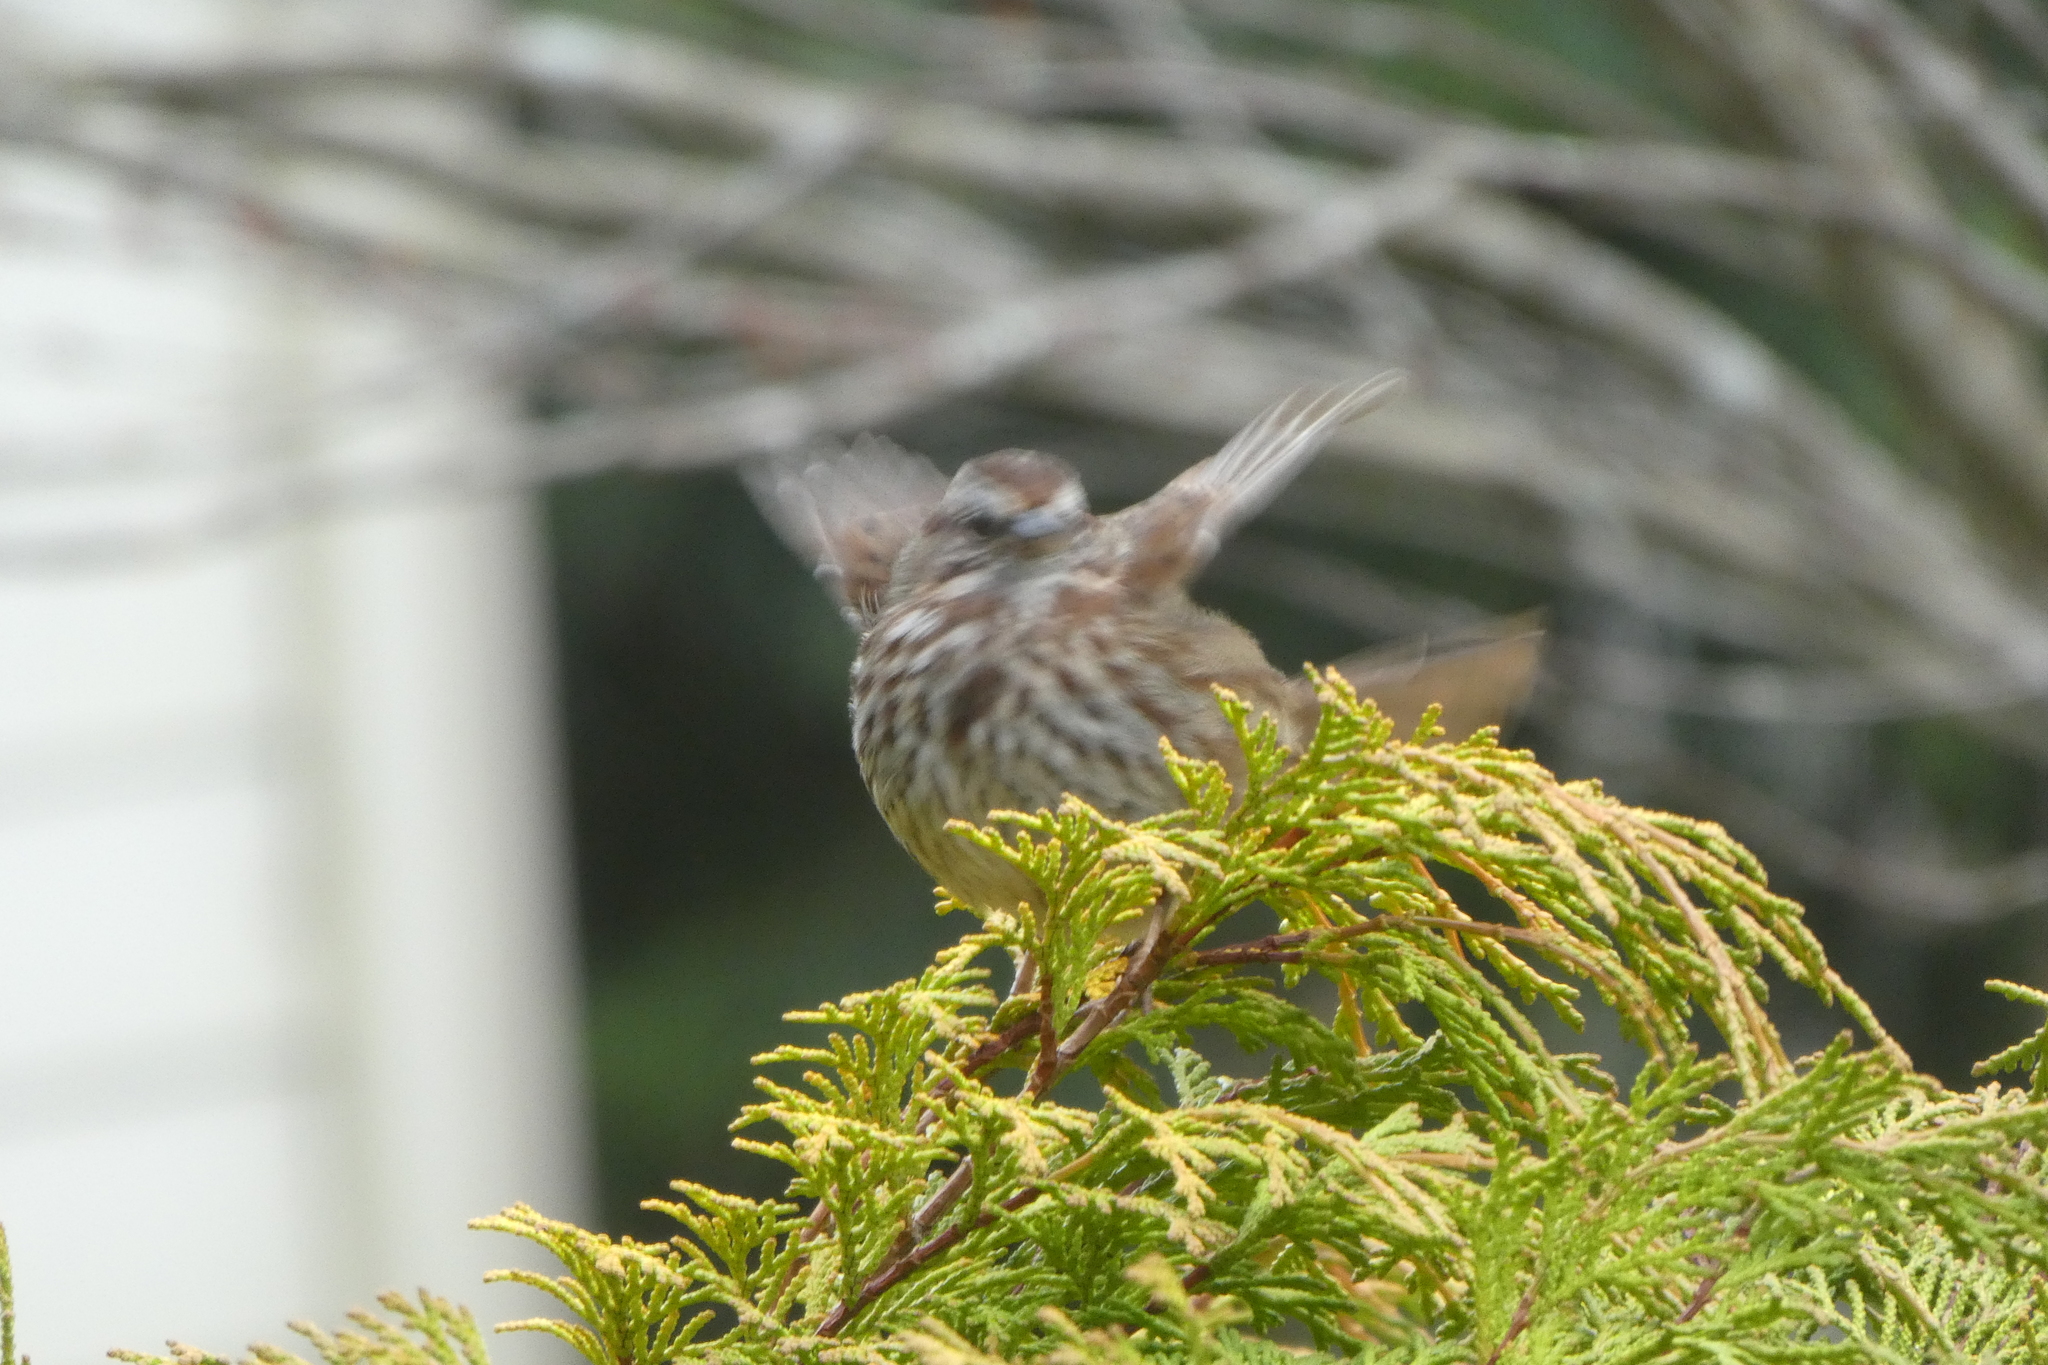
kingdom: Animalia
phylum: Chordata
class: Aves
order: Passeriformes
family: Passerellidae
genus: Melospiza
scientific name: Melospiza melodia
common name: Song sparrow
